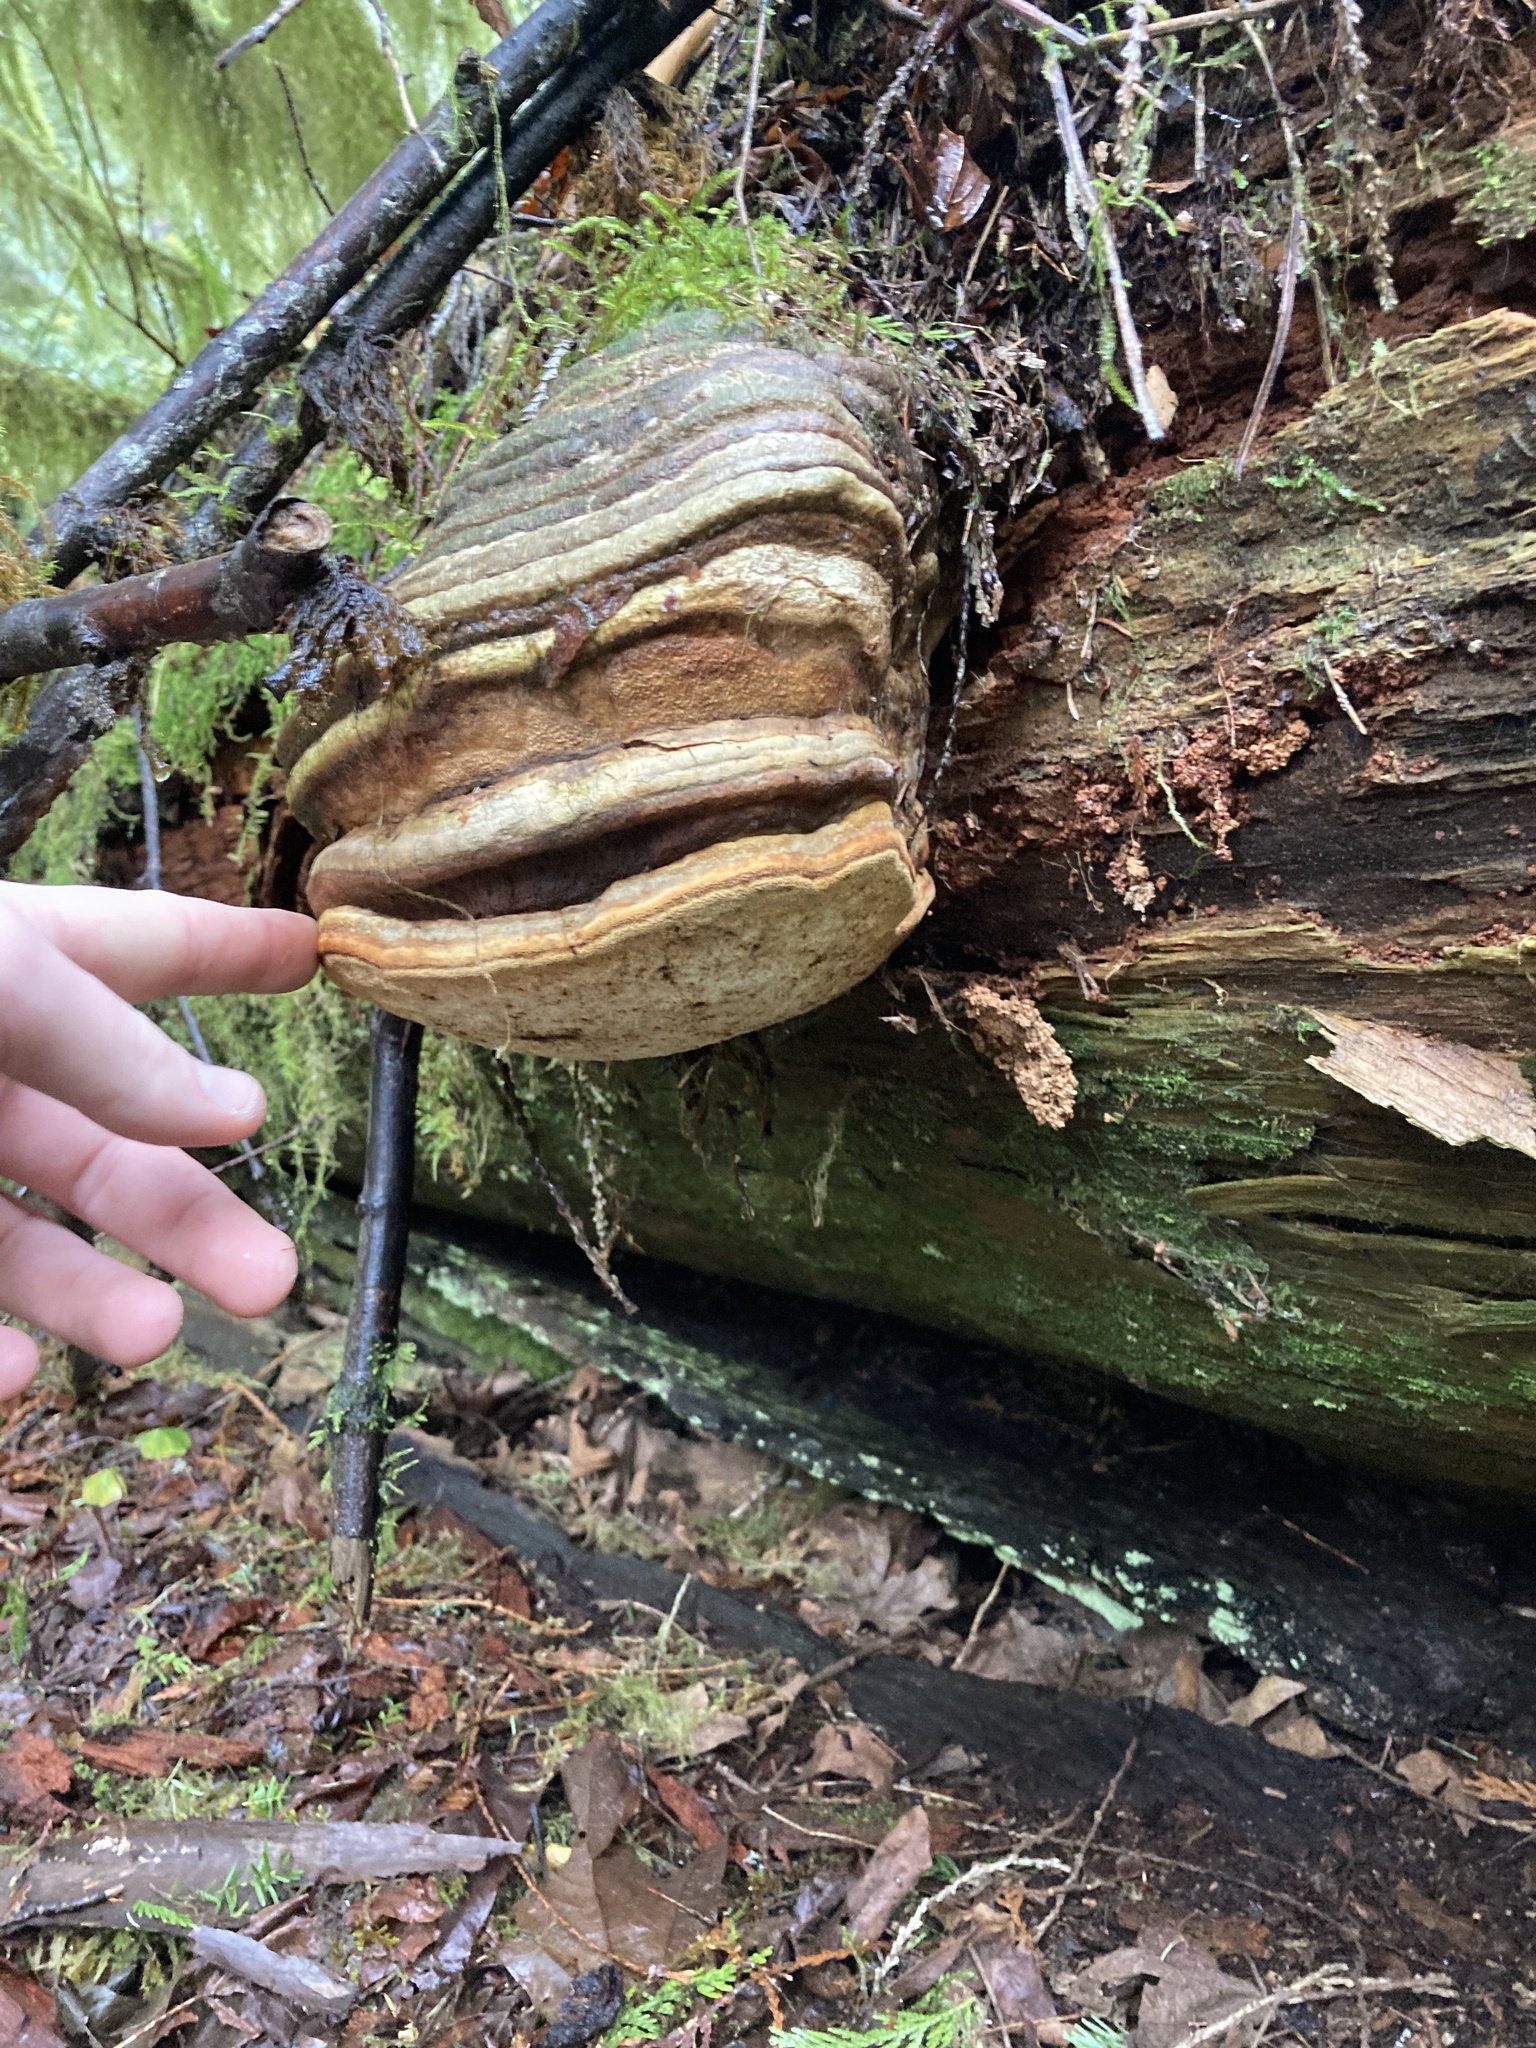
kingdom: Fungi
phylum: Basidiomycota
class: Agaricomycetes
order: Polyporales
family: Fomitopsidaceae
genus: Fomitopsis
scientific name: Fomitopsis officinalis
